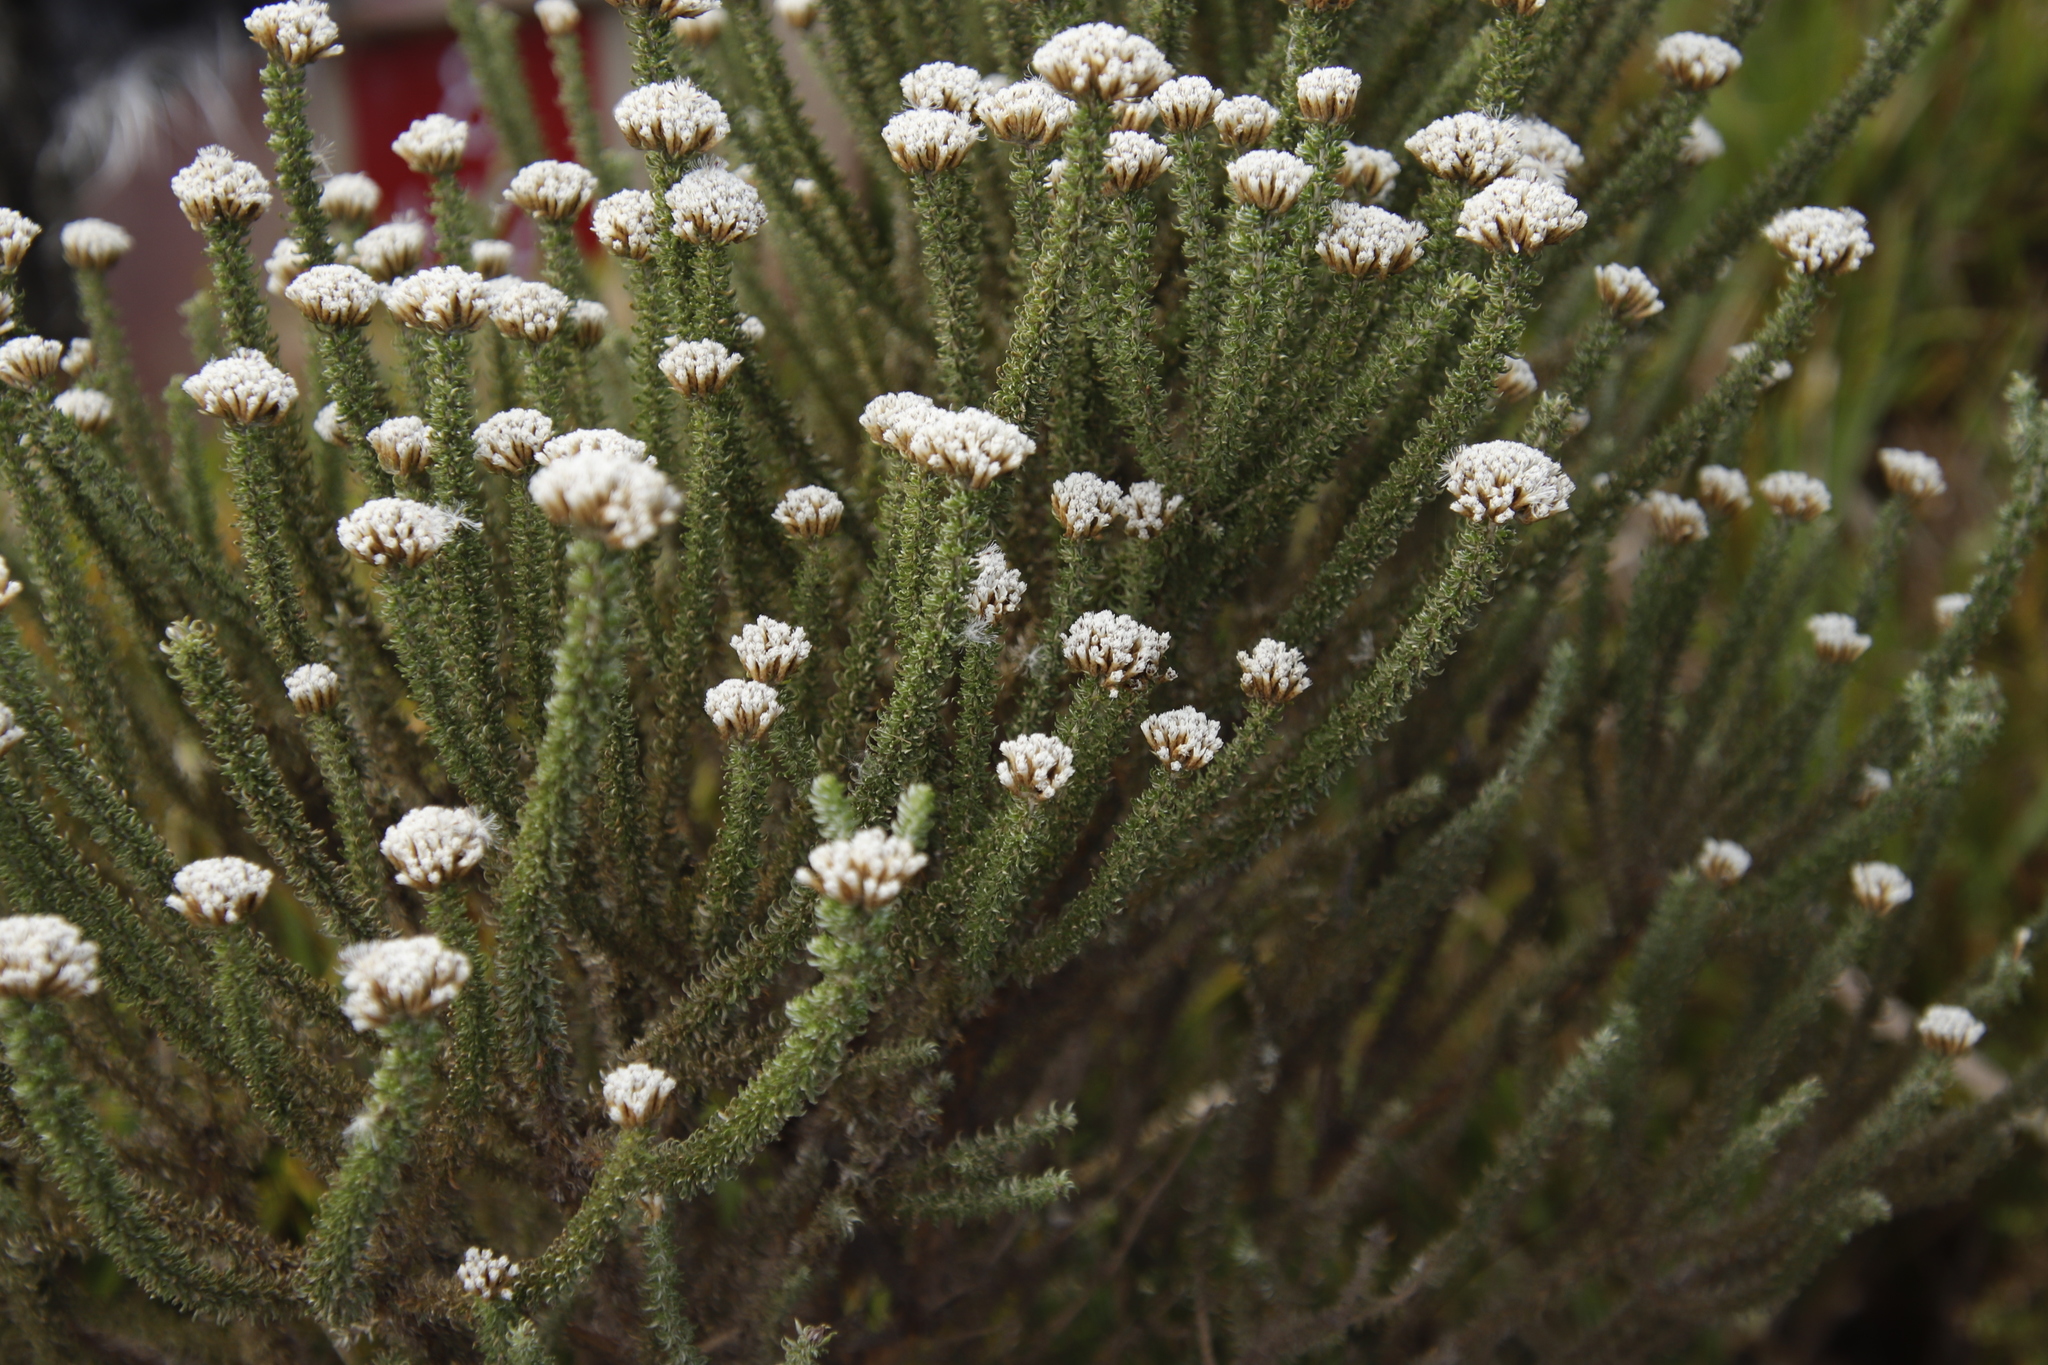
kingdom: Plantae
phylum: Tracheophyta
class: Magnoliopsida
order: Asterales
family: Asteraceae
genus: Metalasia
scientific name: Metalasia muricata
